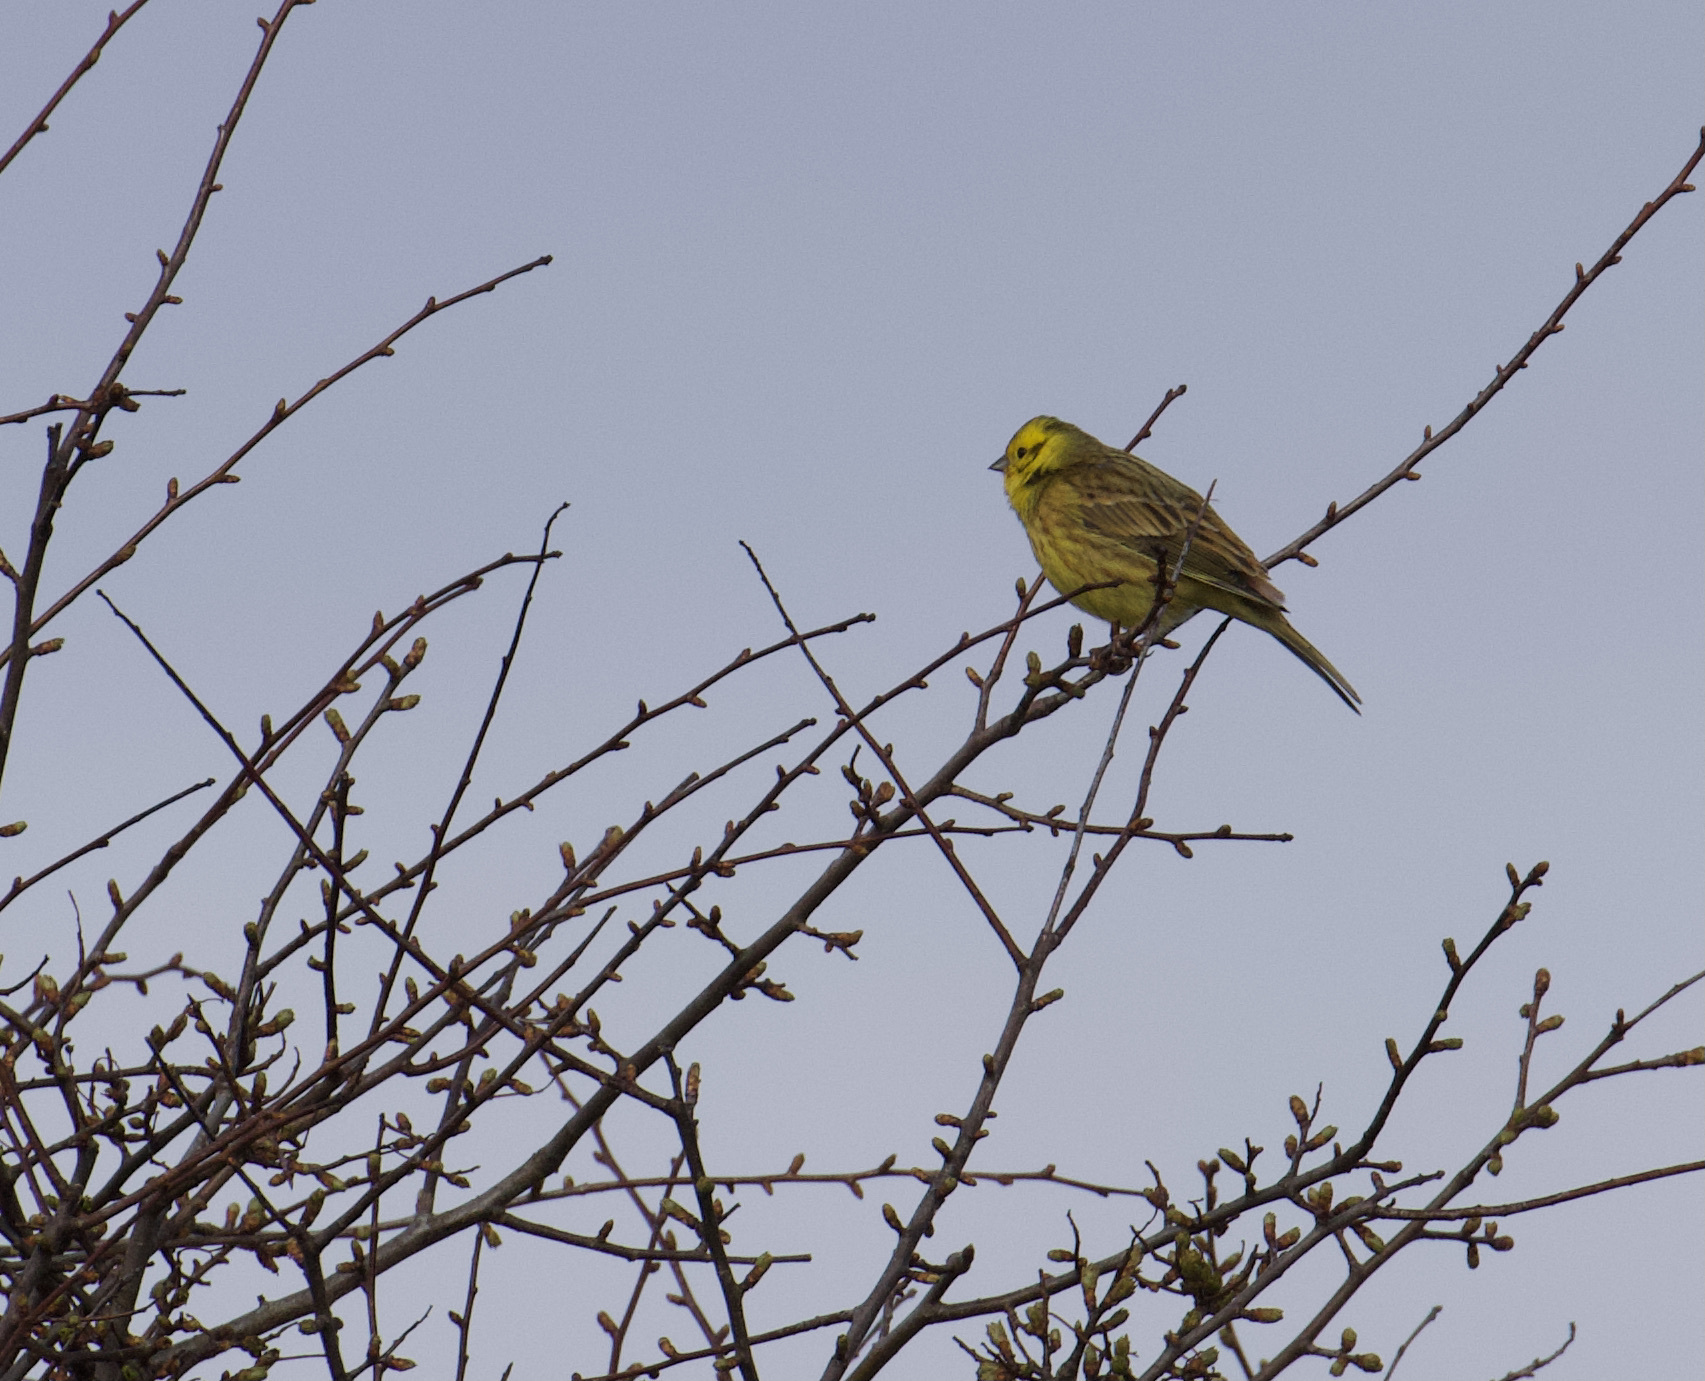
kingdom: Animalia
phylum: Chordata
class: Aves
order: Passeriformes
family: Emberizidae
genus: Emberiza
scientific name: Emberiza citrinella
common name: Yellowhammer
